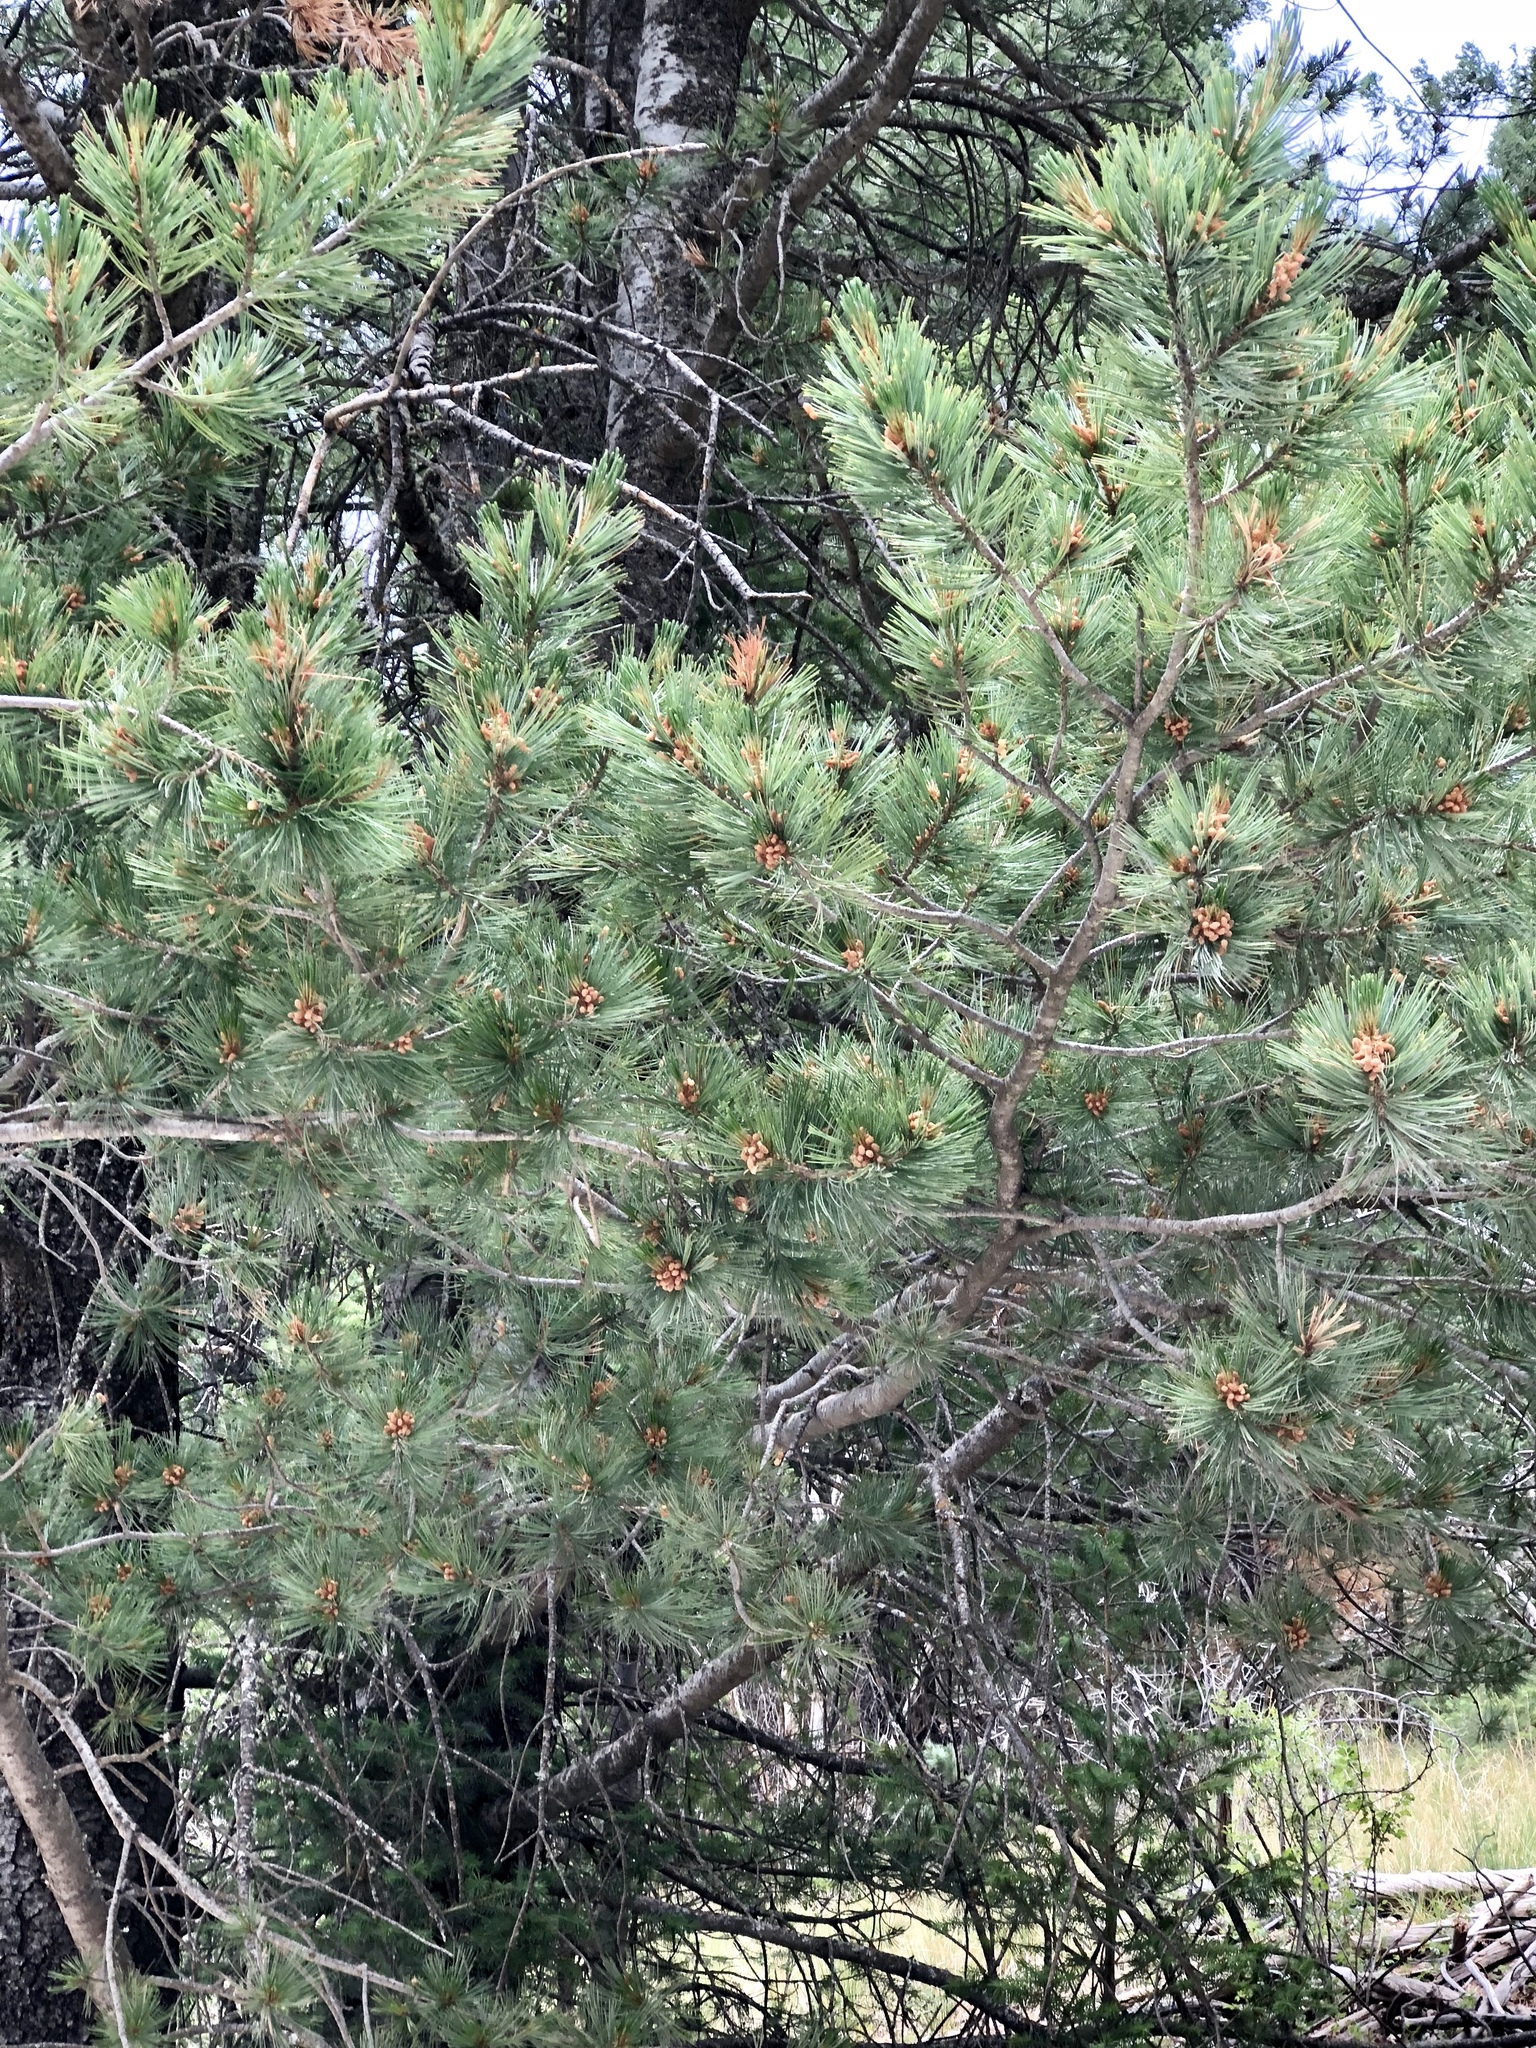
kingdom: Plantae
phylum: Tracheophyta
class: Pinopsida
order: Pinales
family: Pinaceae
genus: Pinus
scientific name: Pinus strobiformis
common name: Southwestern white pine
